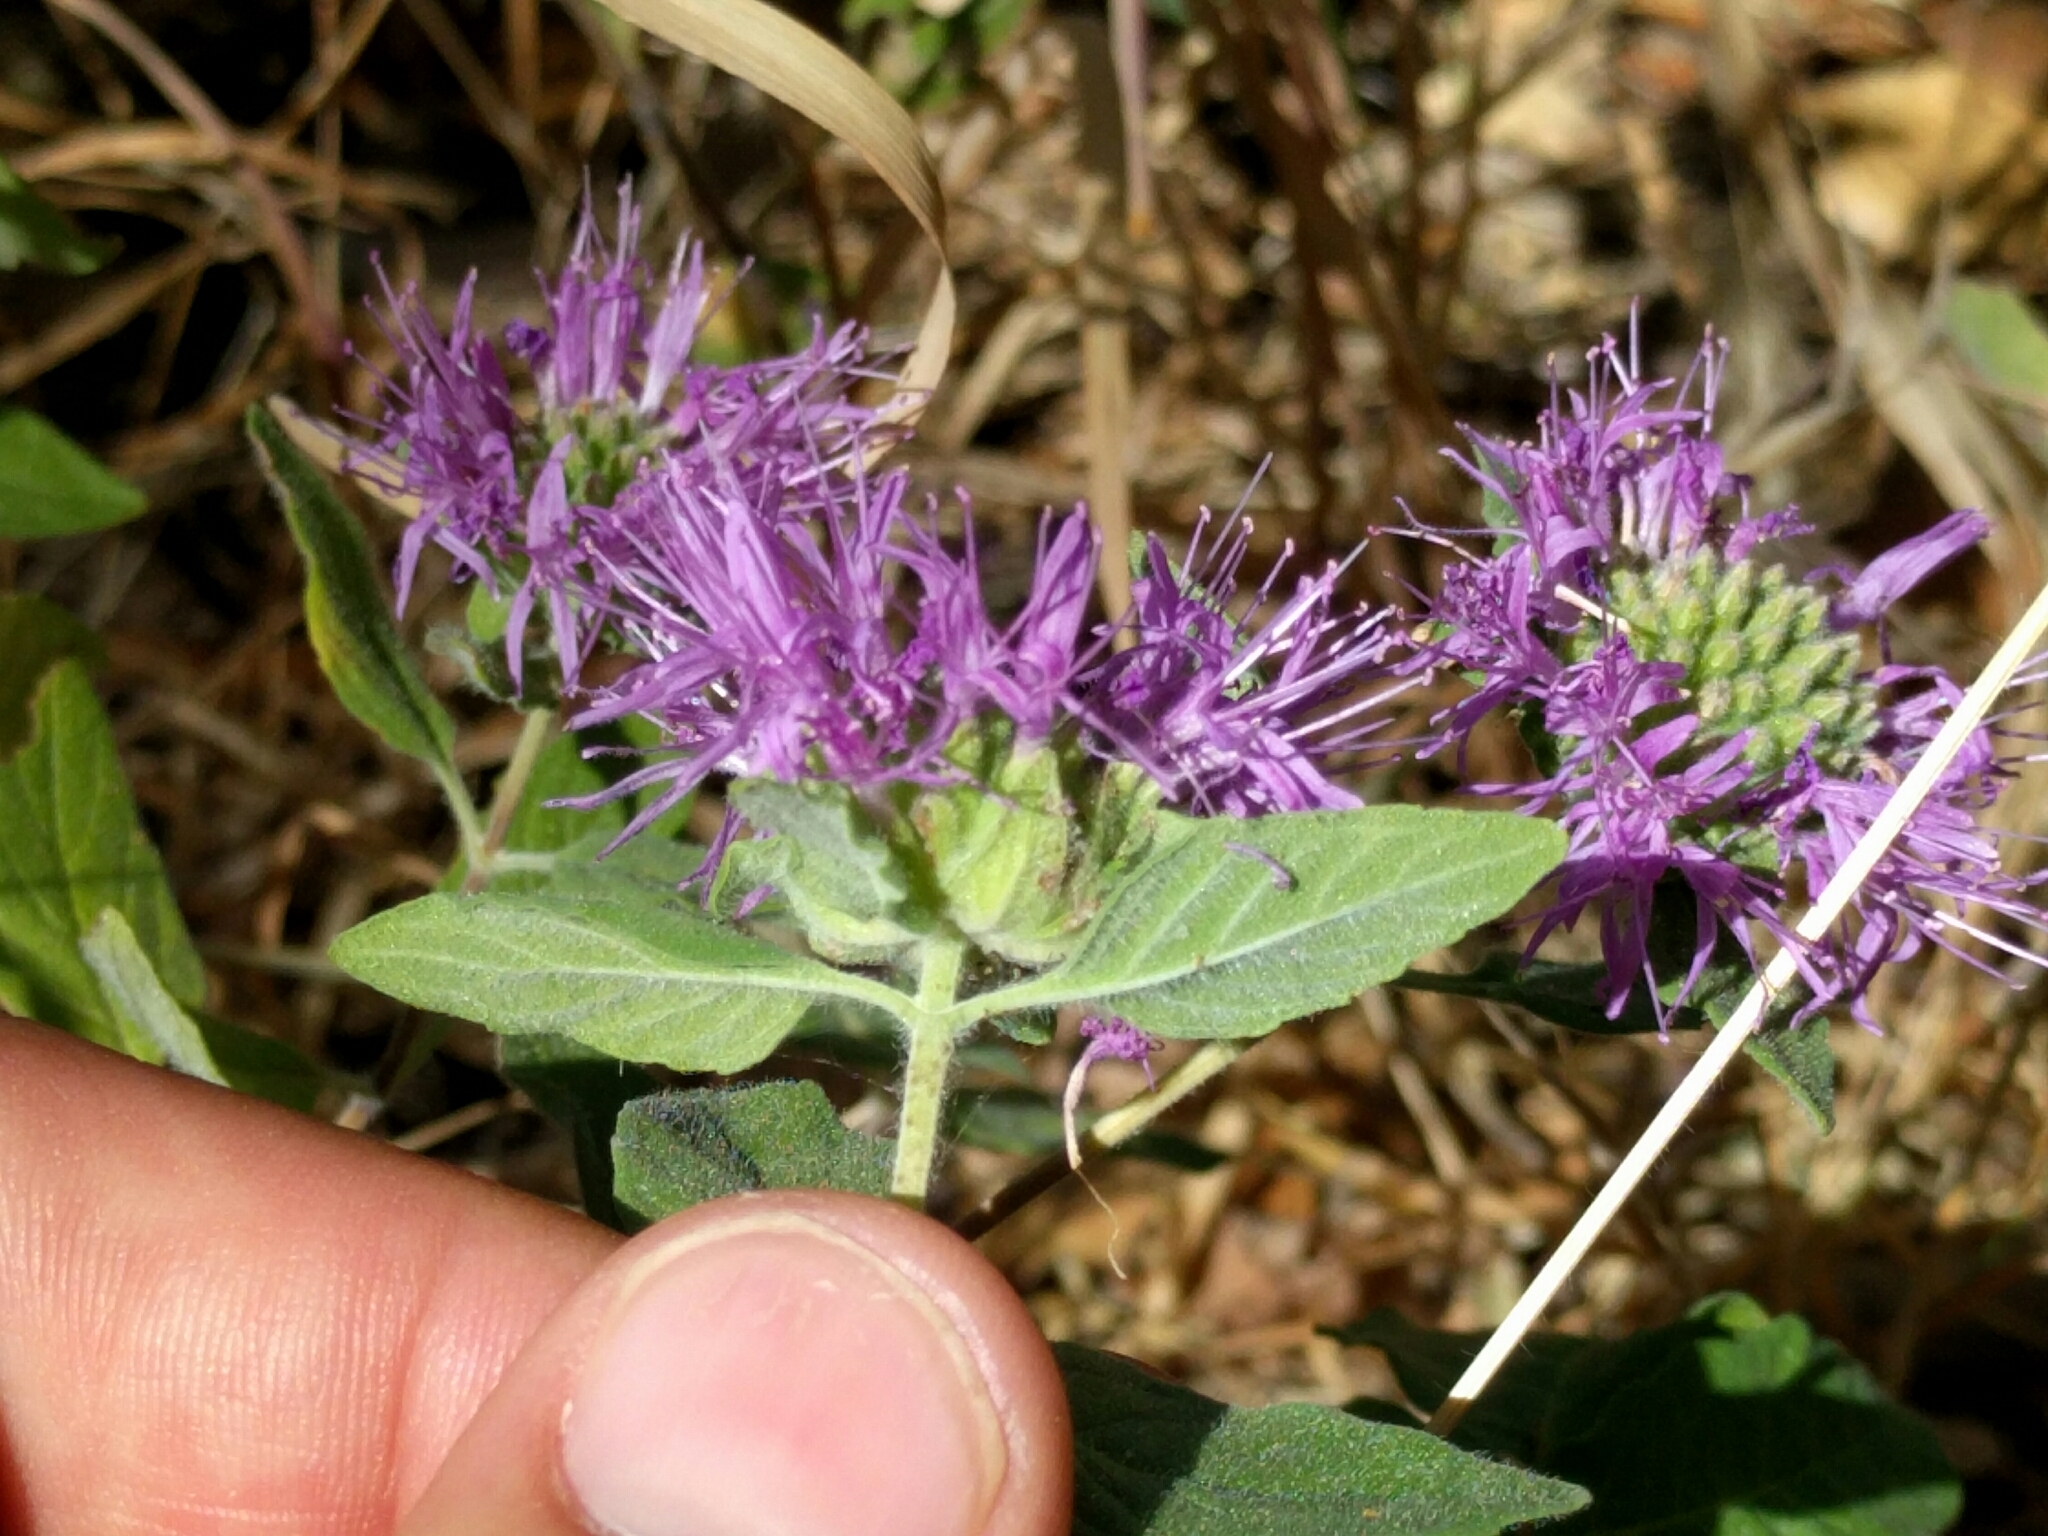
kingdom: Plantae
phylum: Tracheophyta
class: Magnoliopsida
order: Lamiales
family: Lamiaceae
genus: Monardella
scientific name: Monardella odoratissima
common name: Pacific monardella
